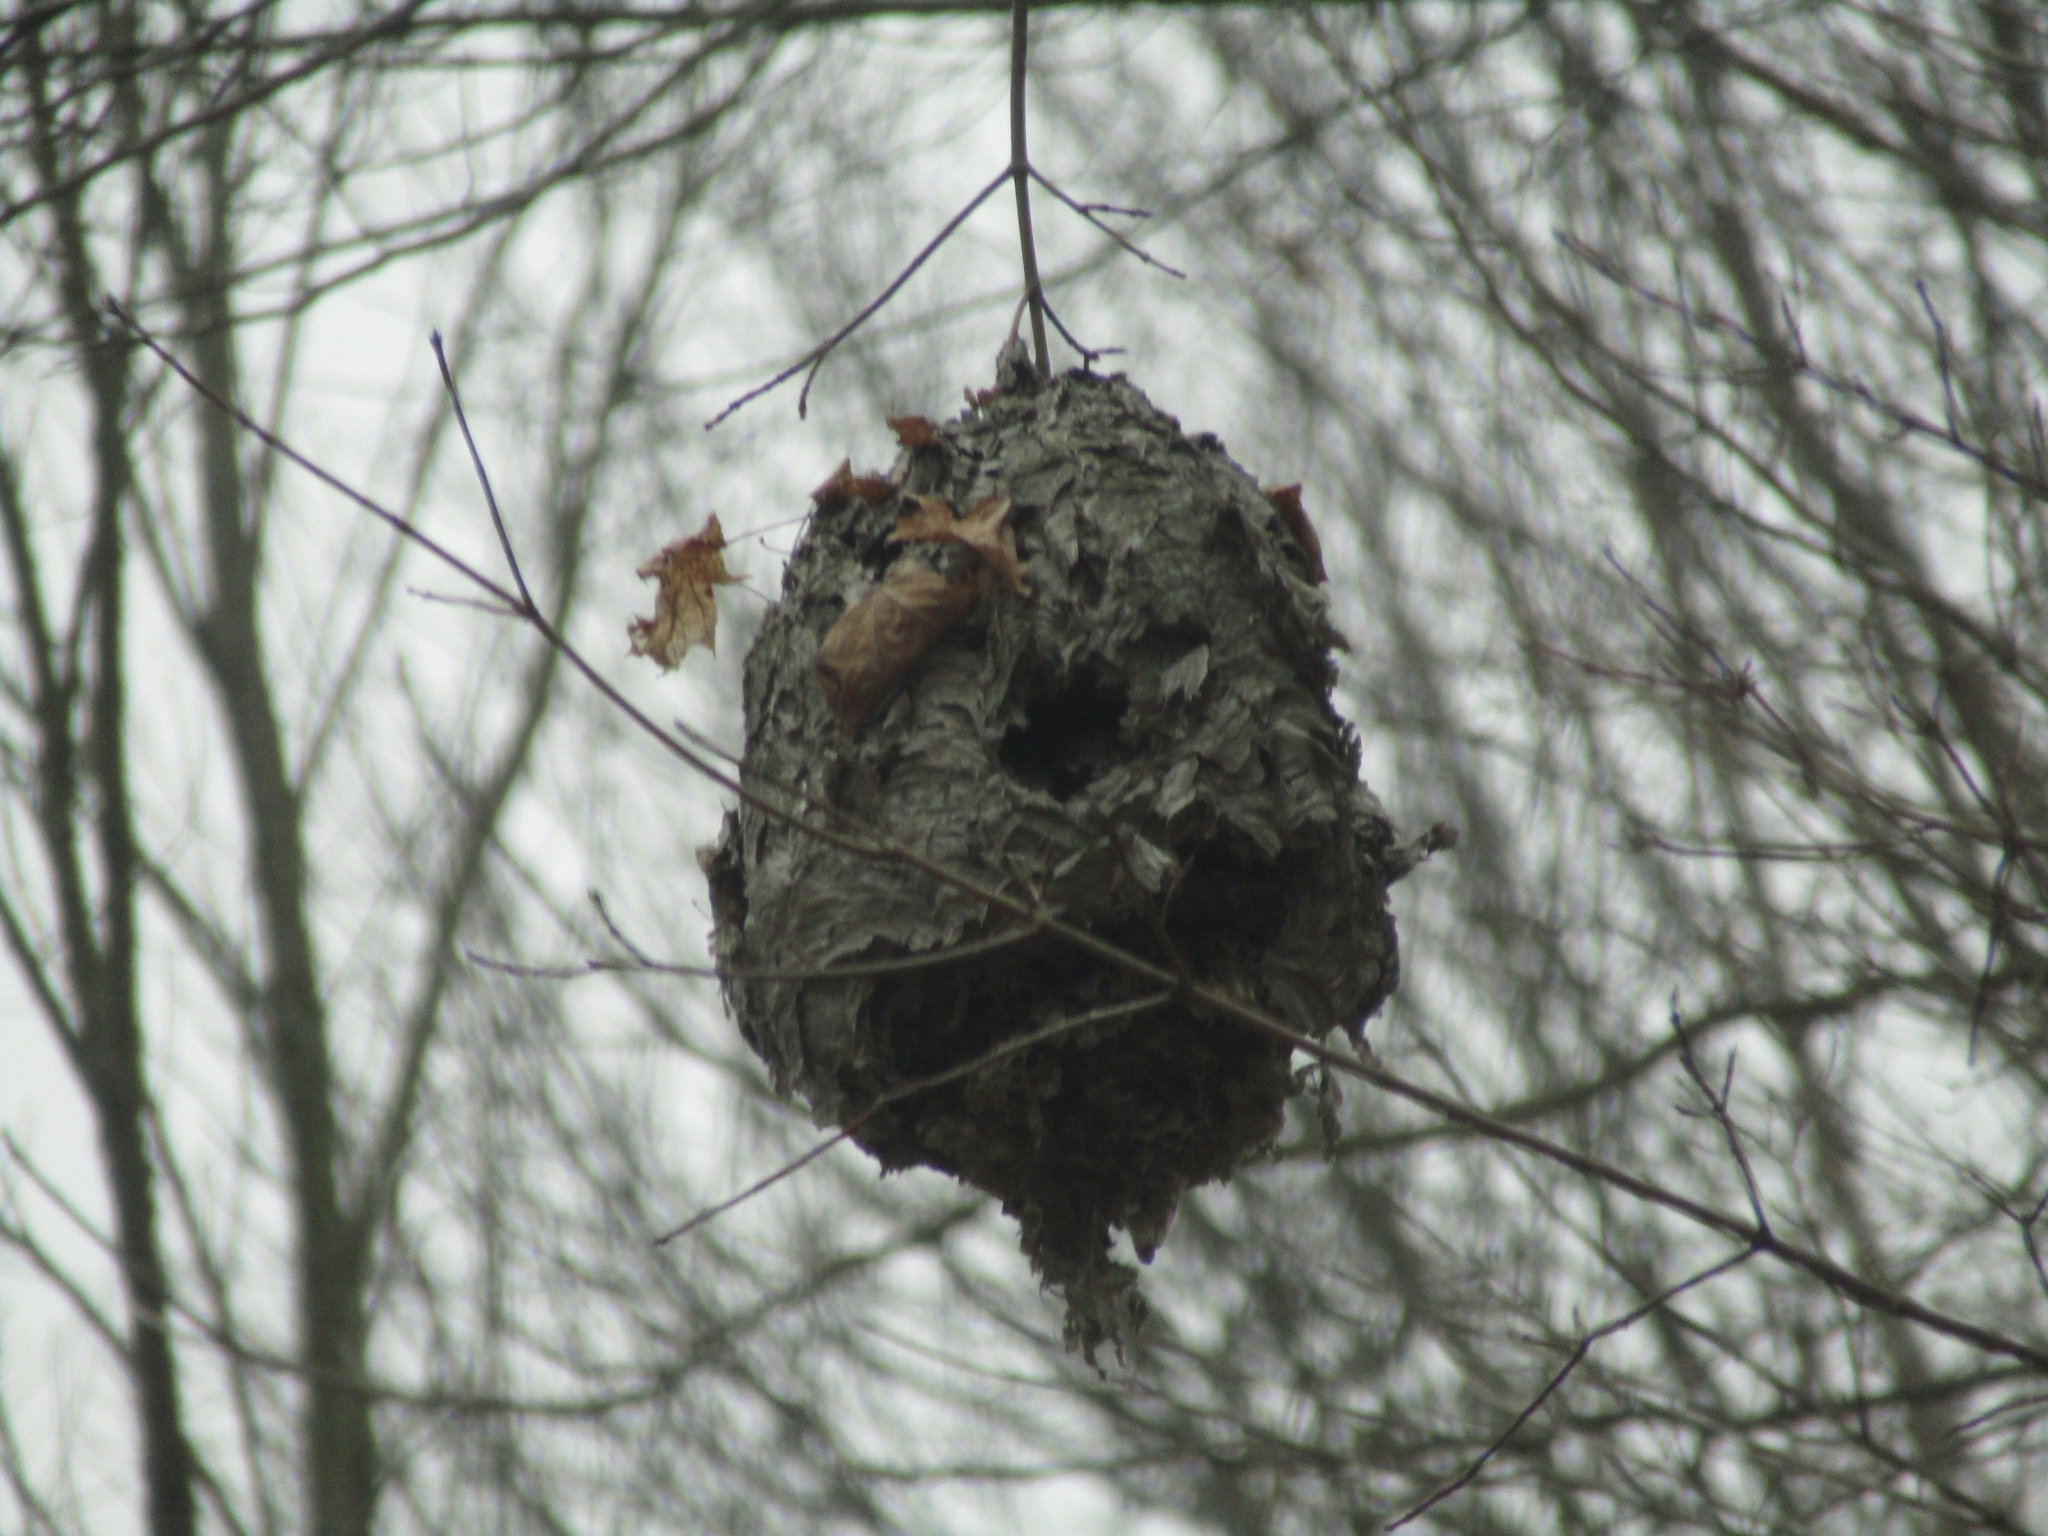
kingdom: Animalia
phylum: Arthropoda
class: Insecta
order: Hymenoptera
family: Vespidae
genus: Dolichovespula
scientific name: Dolichovespula
